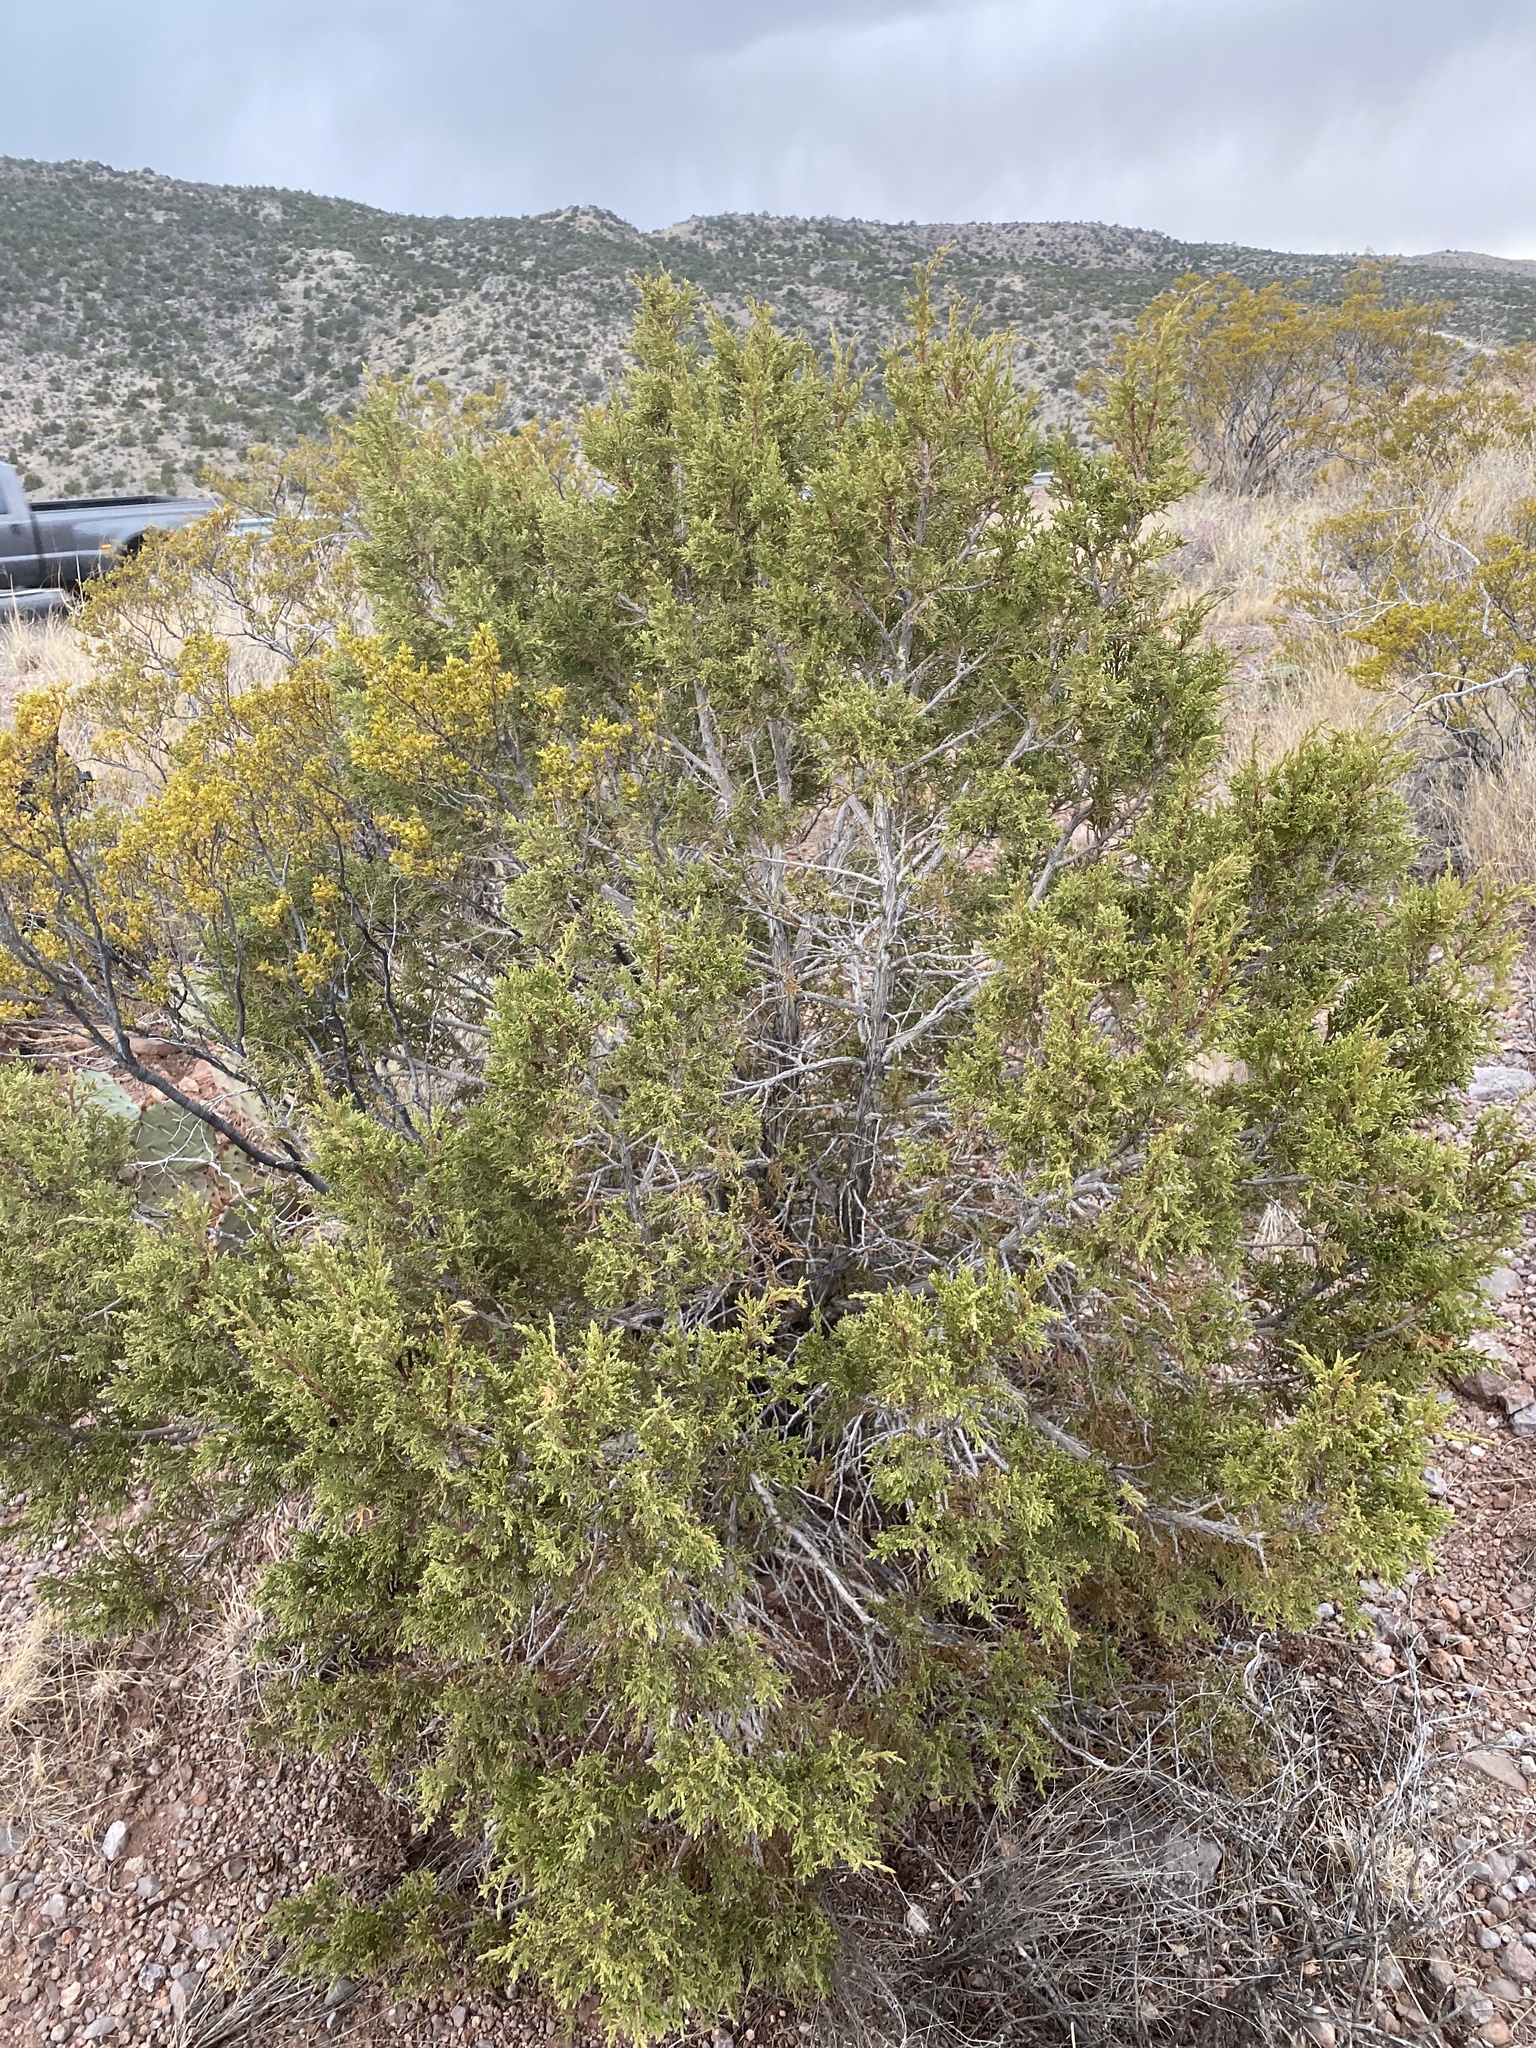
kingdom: Plantae
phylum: Tracheophyta
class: Pinopsida
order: Pinales
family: Cupressaceae
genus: Juniperus
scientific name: Juniperus monosperma
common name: One-seed juniper
